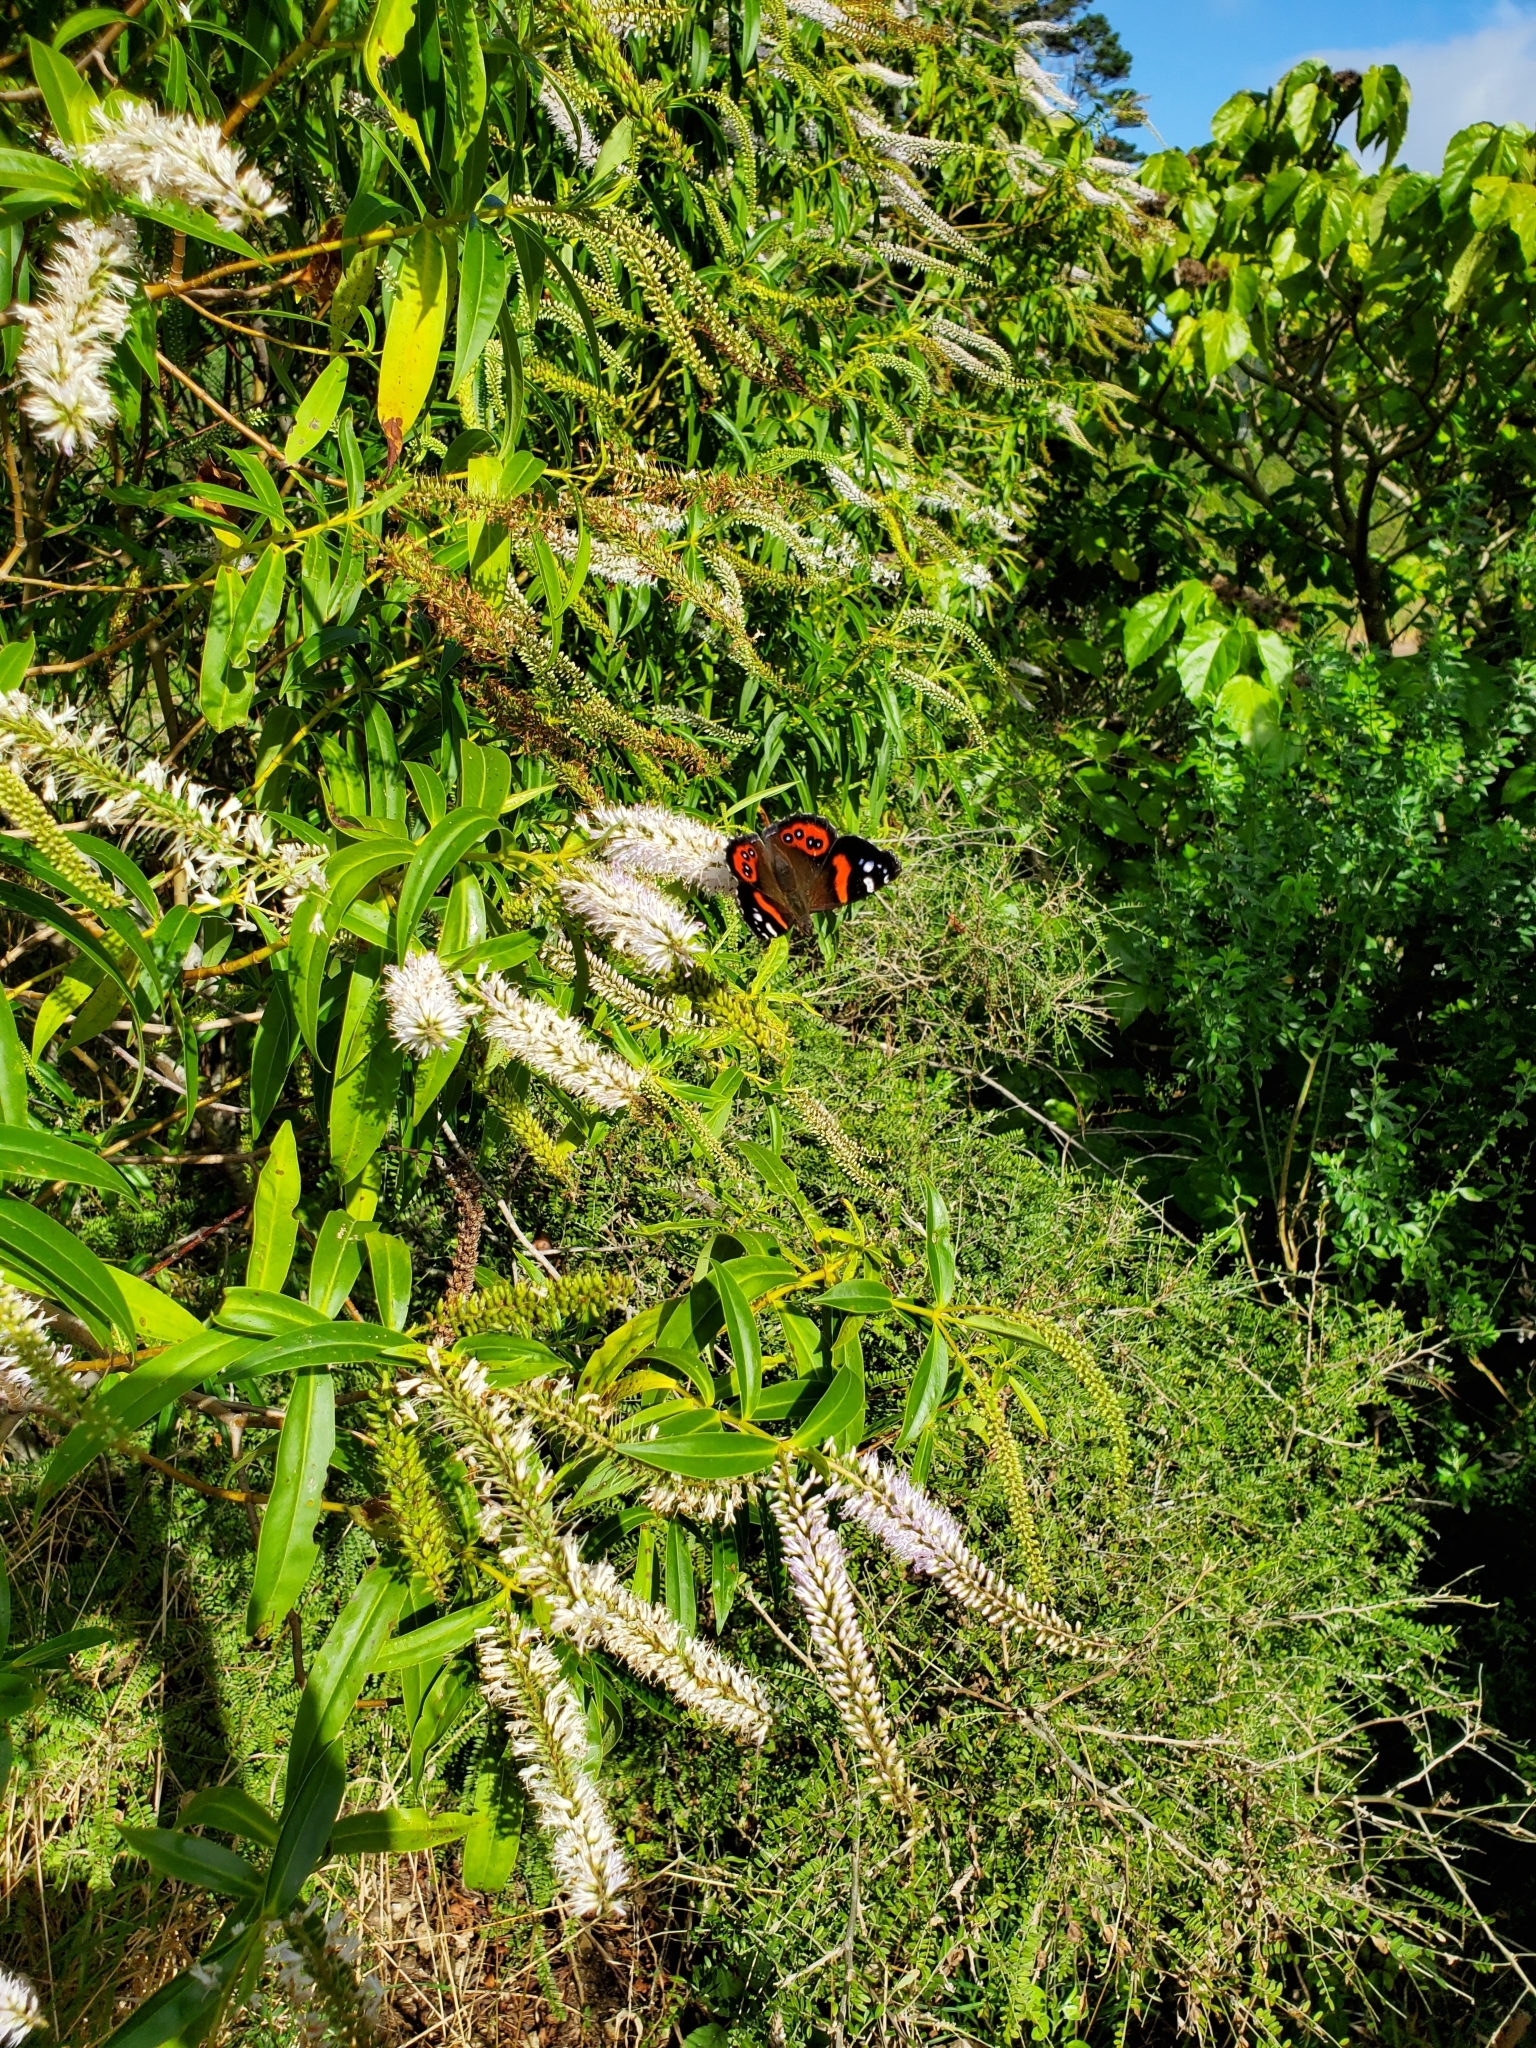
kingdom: Animalia
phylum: Arthropoda
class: Insecta
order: Lepidoptera
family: Nymphalidae
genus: Vanessa
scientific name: Vanessa gonerilla
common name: New zealand red admiral
